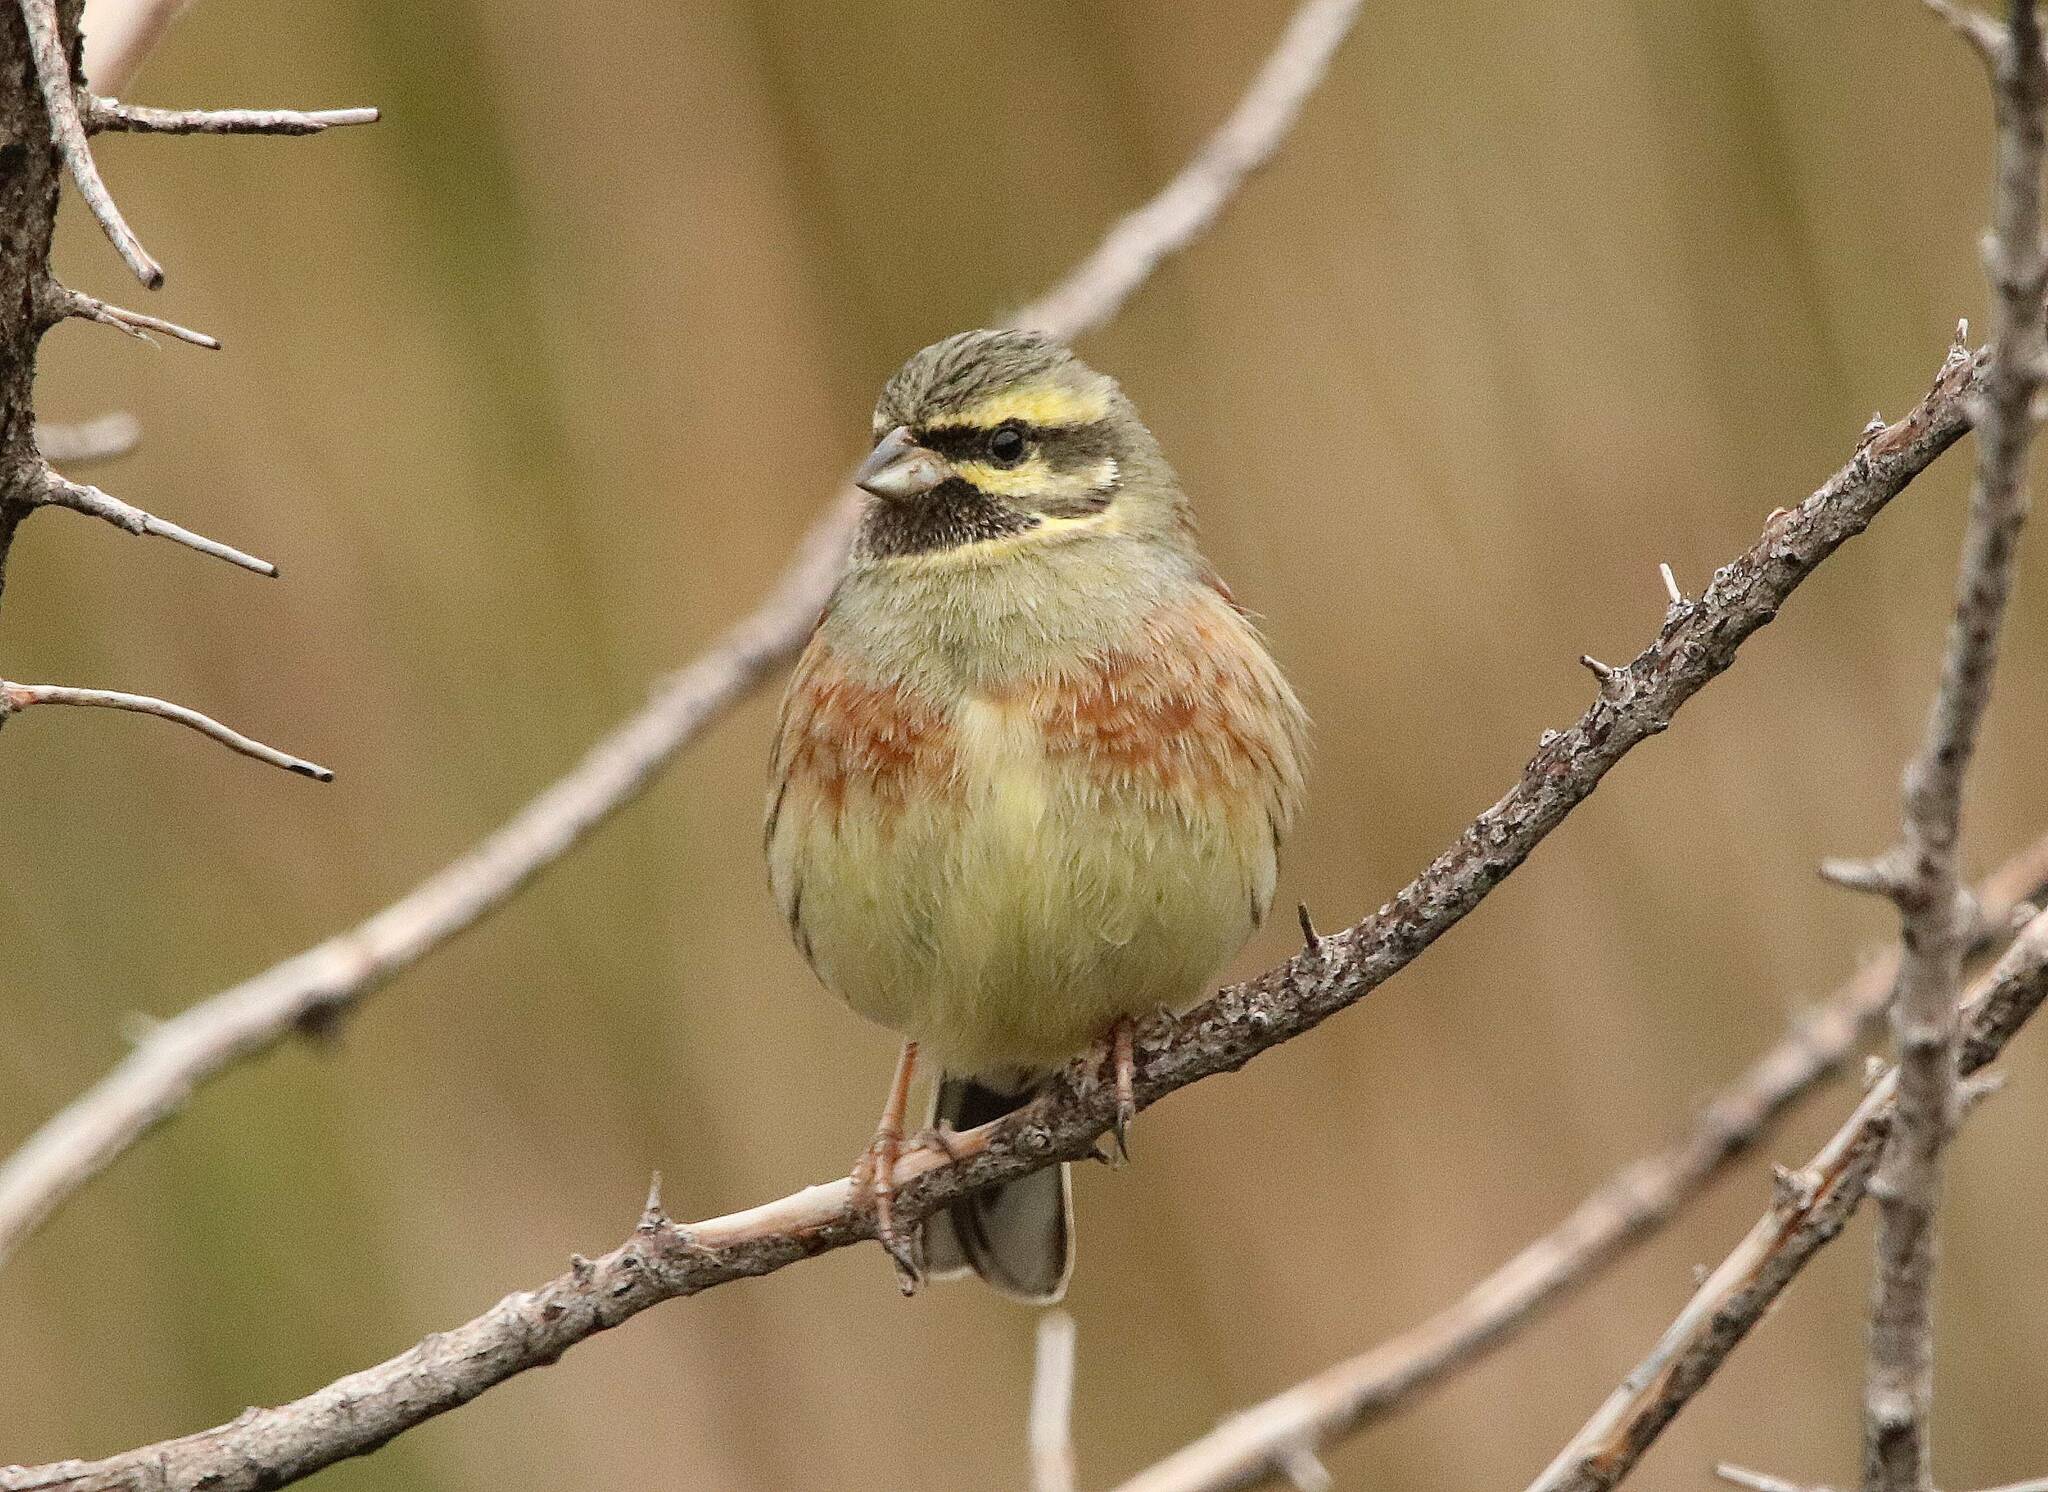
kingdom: Animalia
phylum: Chordata
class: Aves
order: Passeriformes
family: Emberizidae
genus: Emberiza
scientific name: Emberiza cirlus
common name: Cirl bunting
